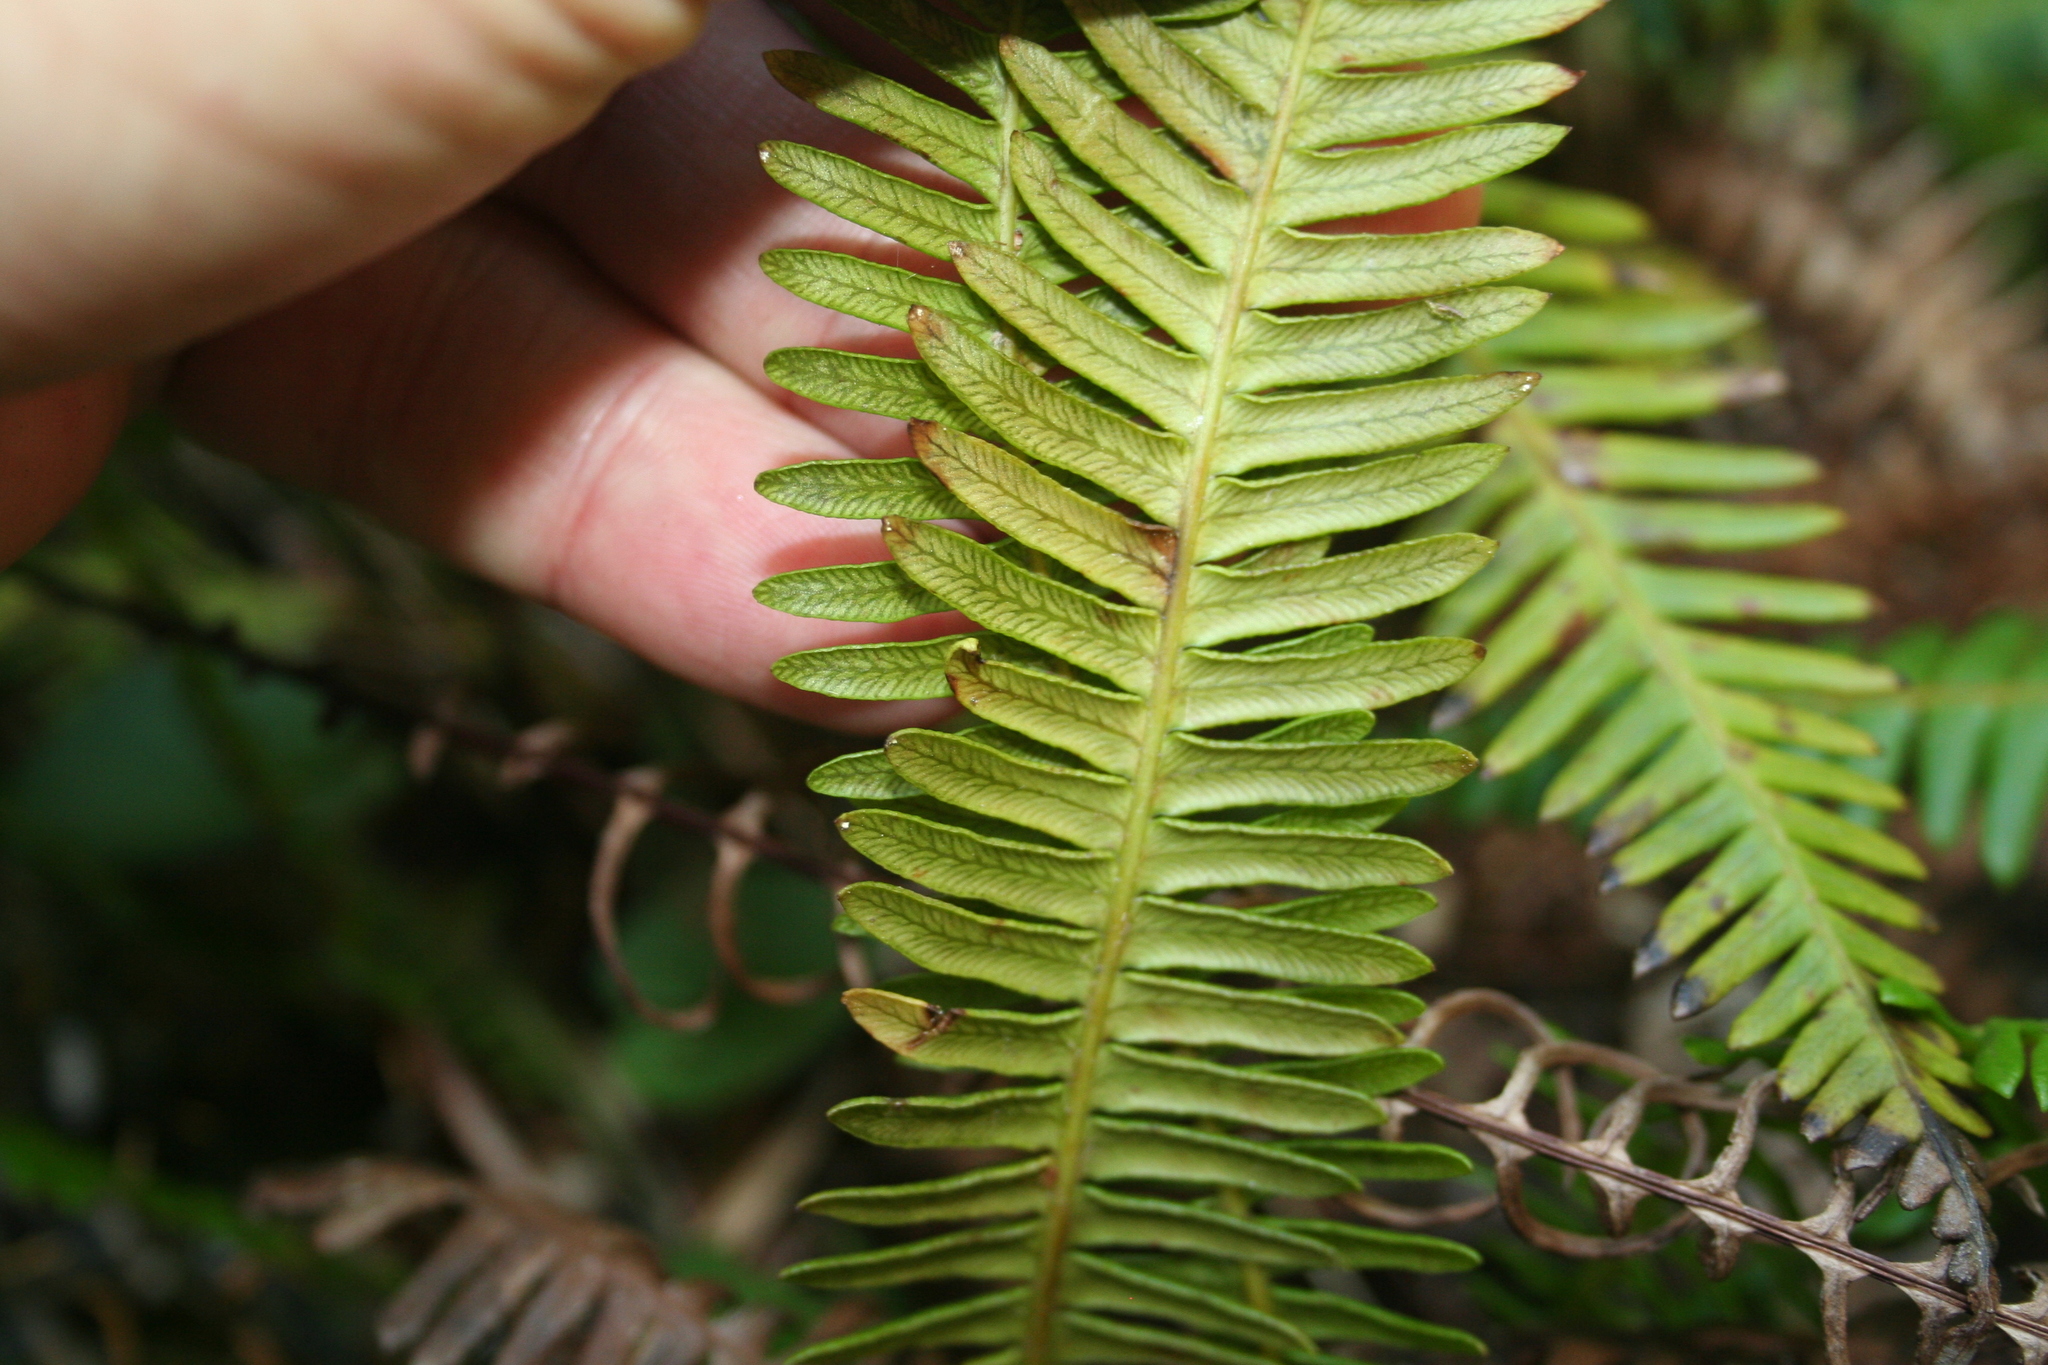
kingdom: Plantae
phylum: Tracheophyta
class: Polypodiopsida
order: Polypodiales
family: Blechnaceae
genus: Struthiopteris
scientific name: Struthiopteris spicant
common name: Deer fern
